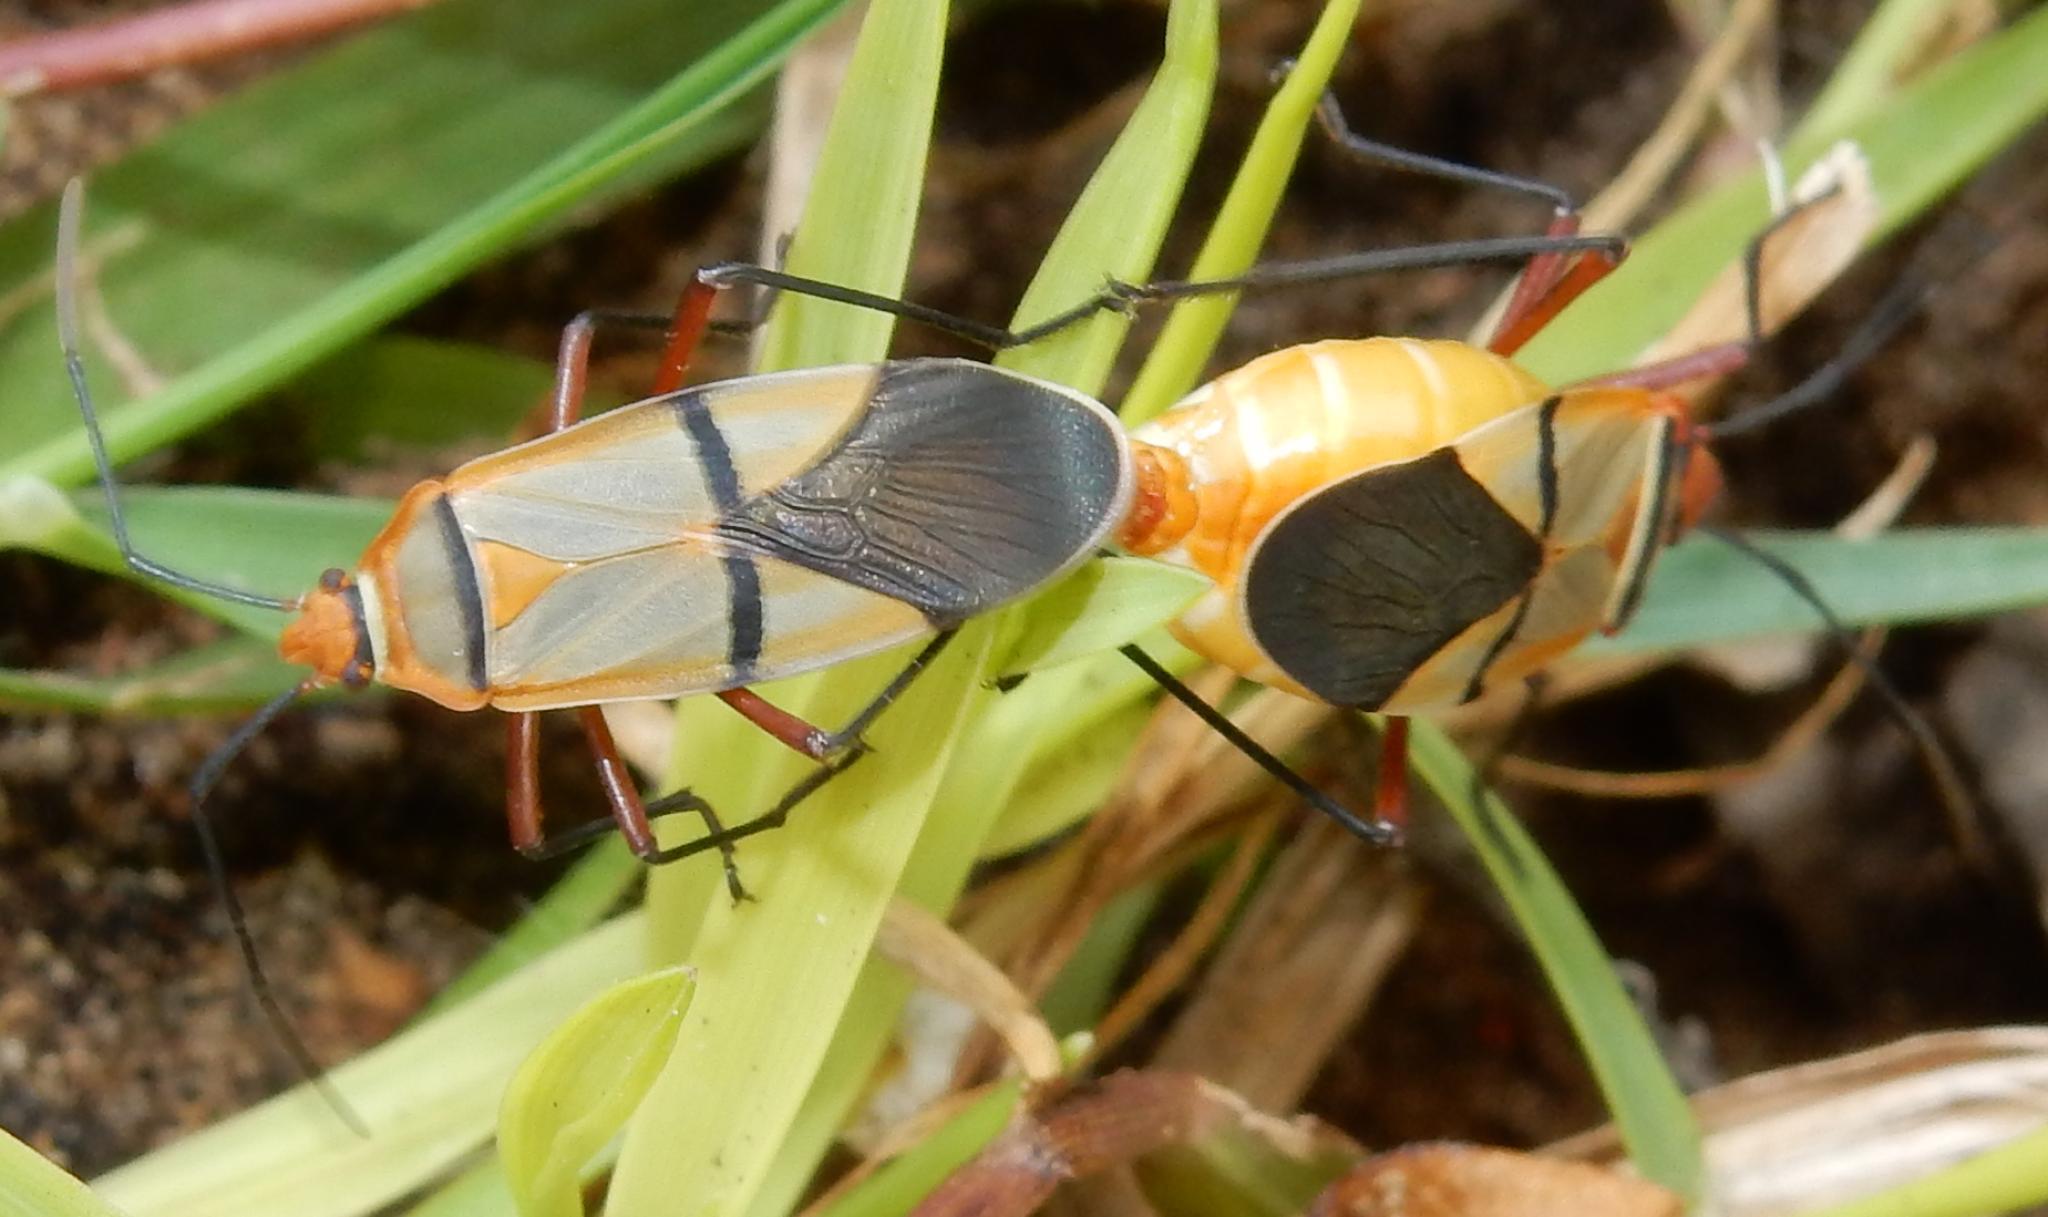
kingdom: Animalia
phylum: Arthropoda
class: Insecta
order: Hemiptera
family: Pyrrhocoridae
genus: Dysdercus
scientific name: Dysdercus
